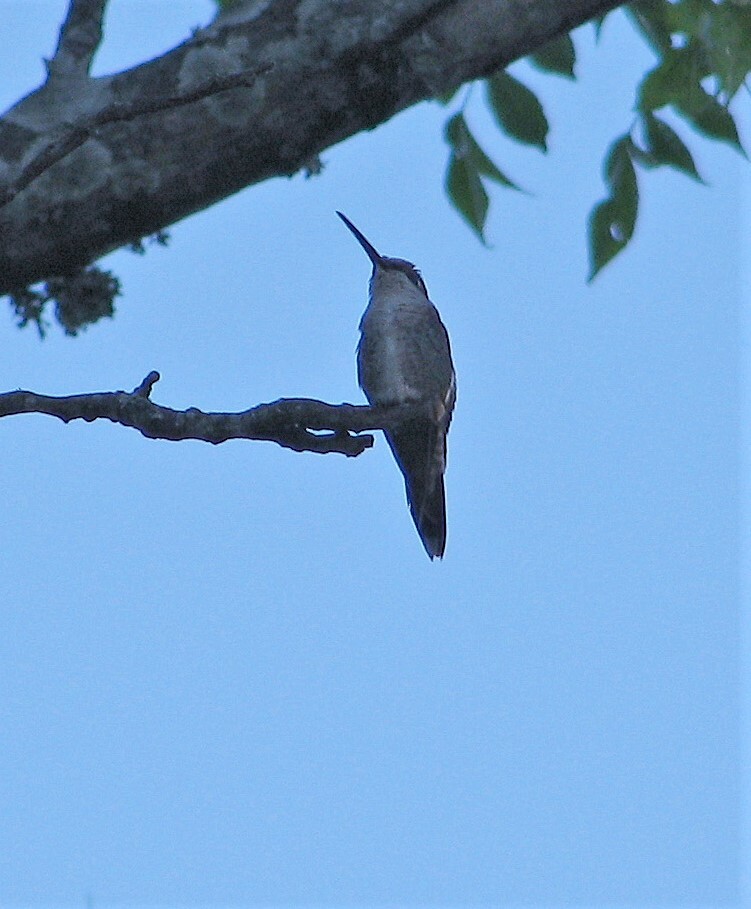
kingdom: Animalia
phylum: Chordata
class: Aves
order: Apodiformes
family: Trochilidae
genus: Heliomaster
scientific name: Heliomaster furcifer
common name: Blue-tufted starthroat
